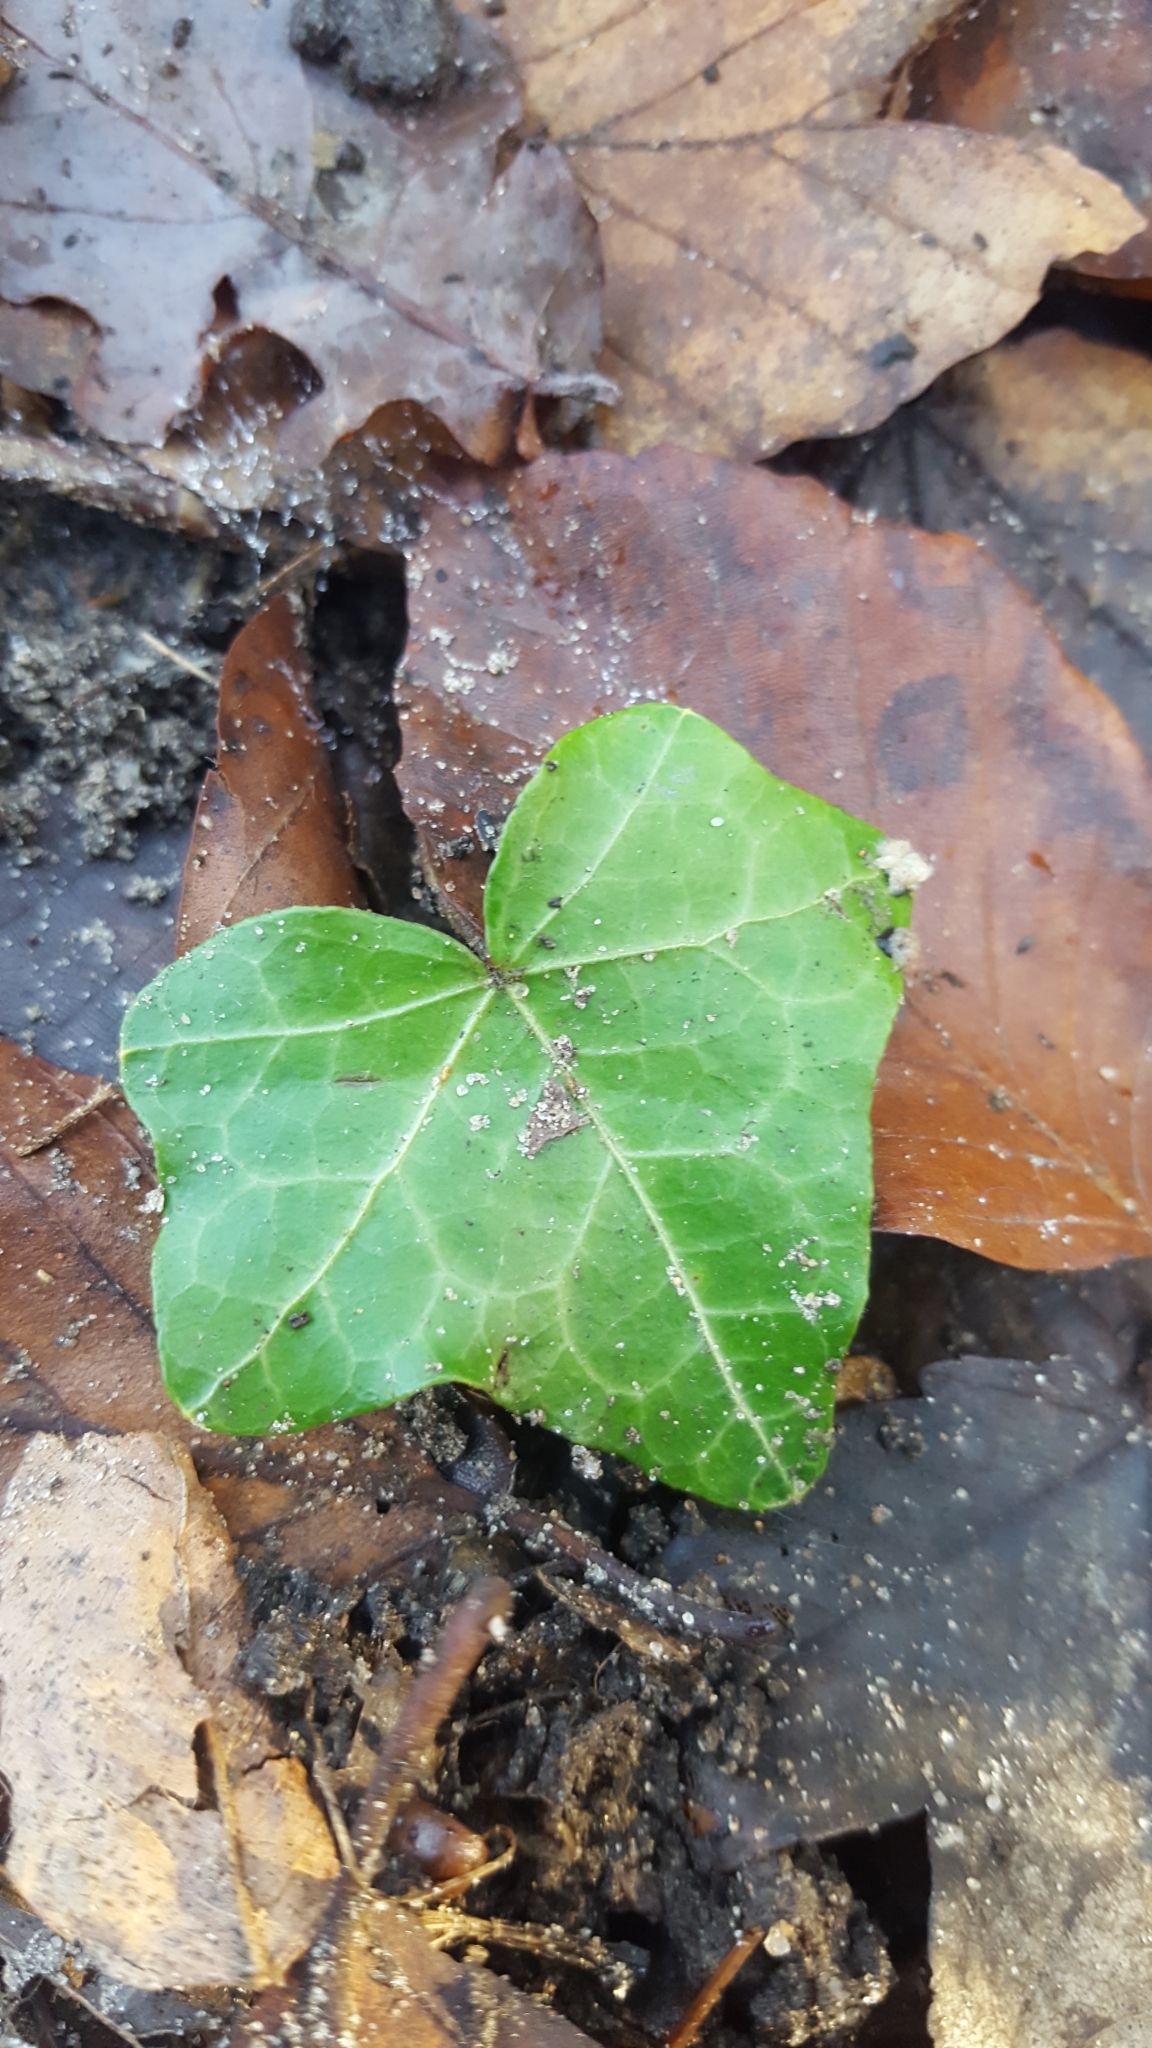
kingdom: Plantae
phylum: Tracheophyta
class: Magnoliopsida
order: Apiales
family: Araliaceae
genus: Hedera
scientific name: Hedera helix
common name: Ivy
